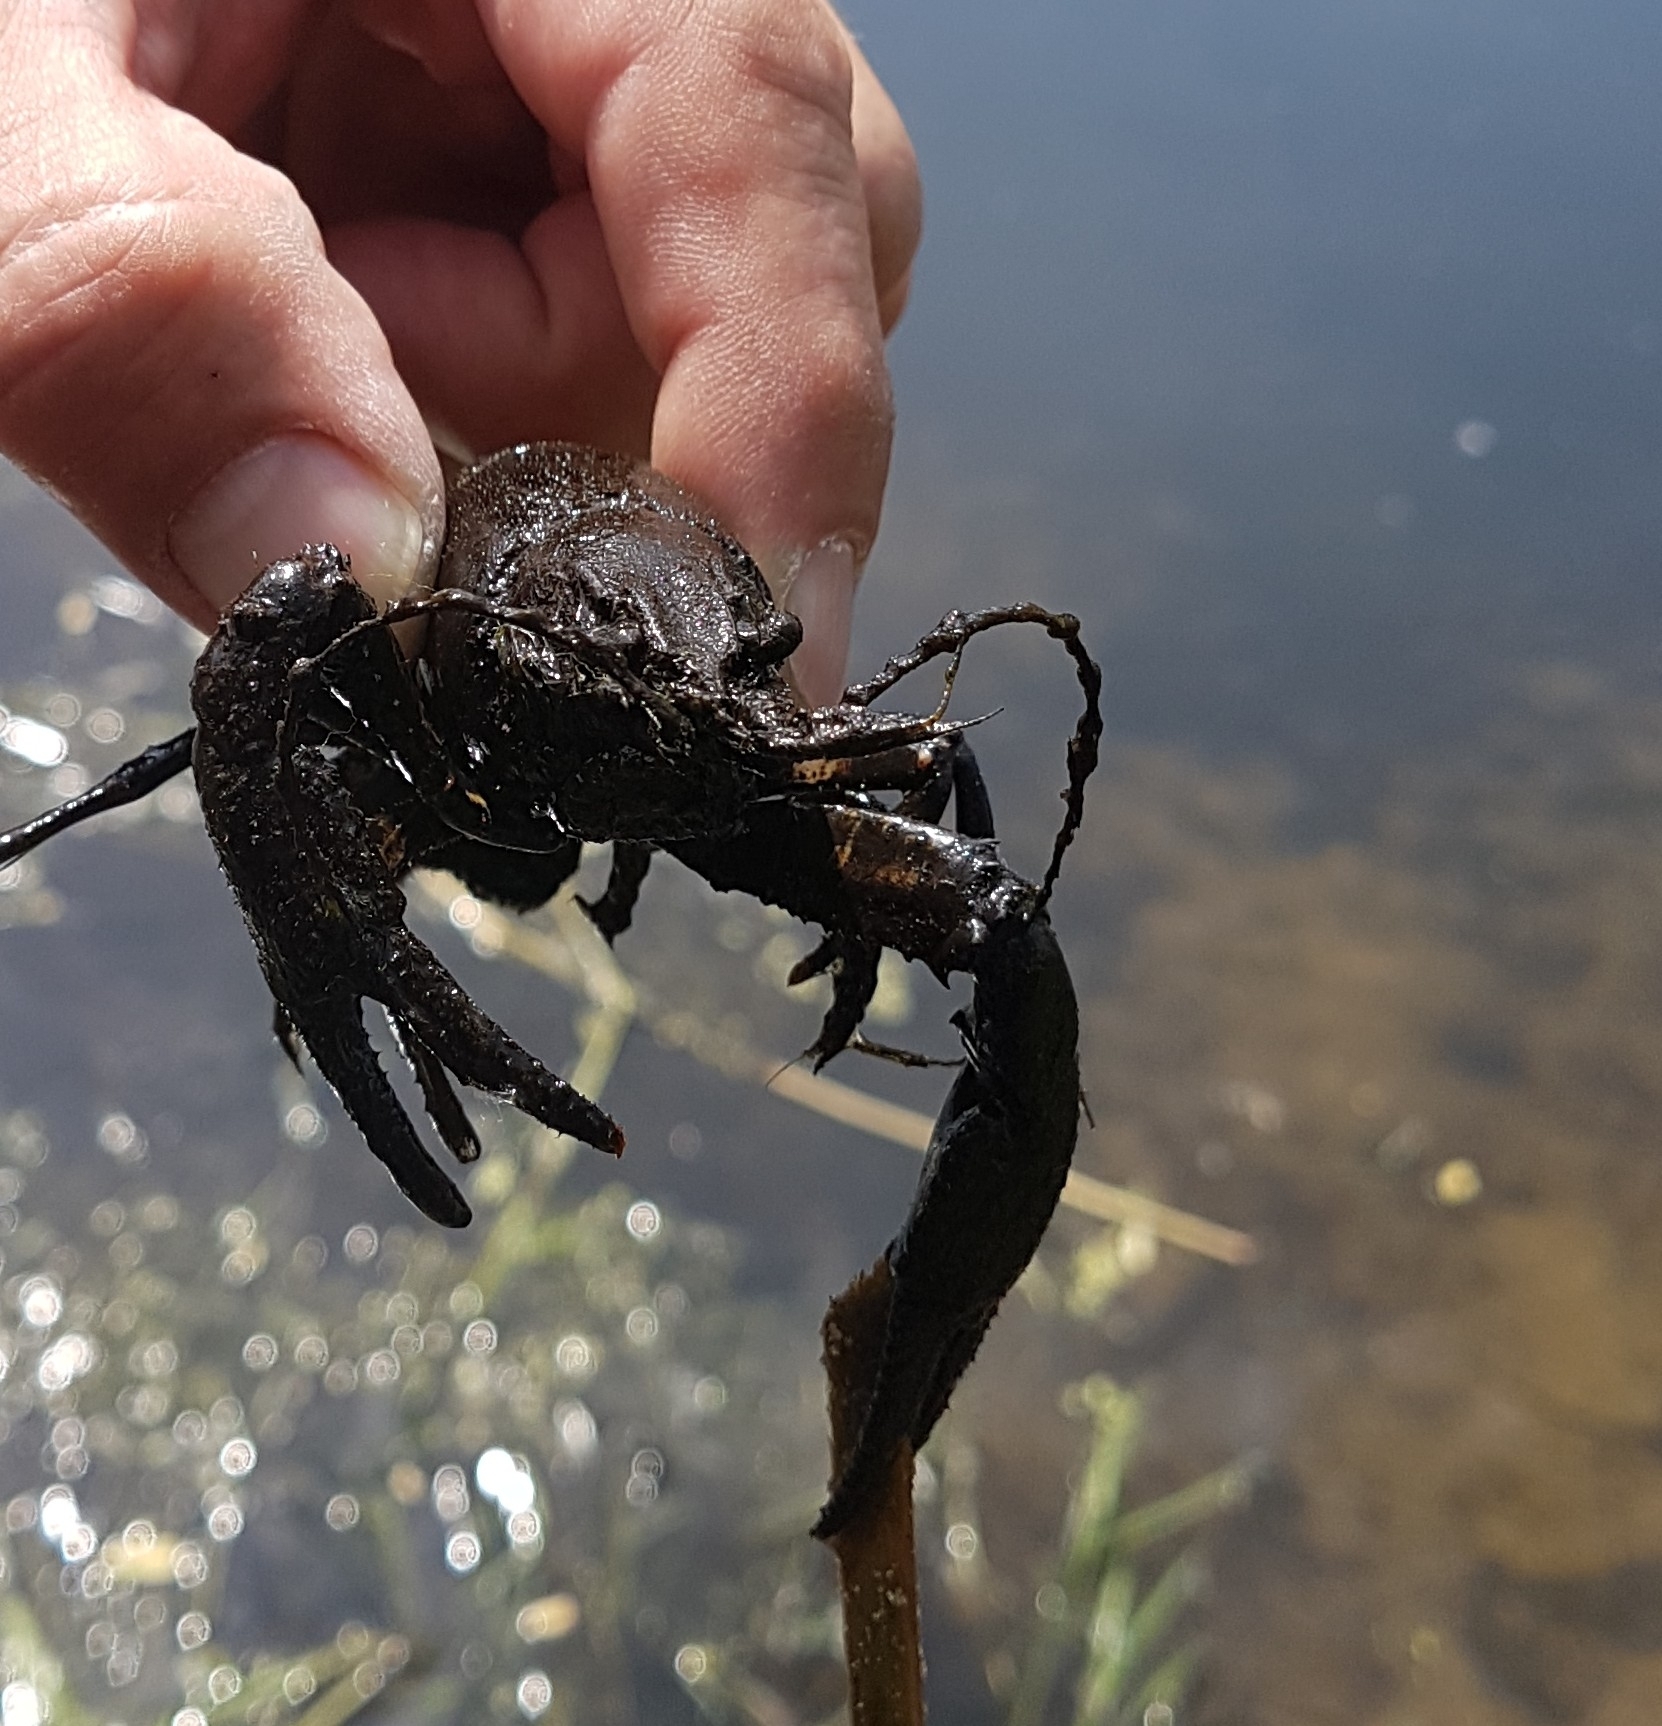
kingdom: Animalia
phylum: Arthropoda
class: Malacostraca
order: Decapoda
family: Cambaridae
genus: Faxonius
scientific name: Faxonius limosus
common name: American crayfish
